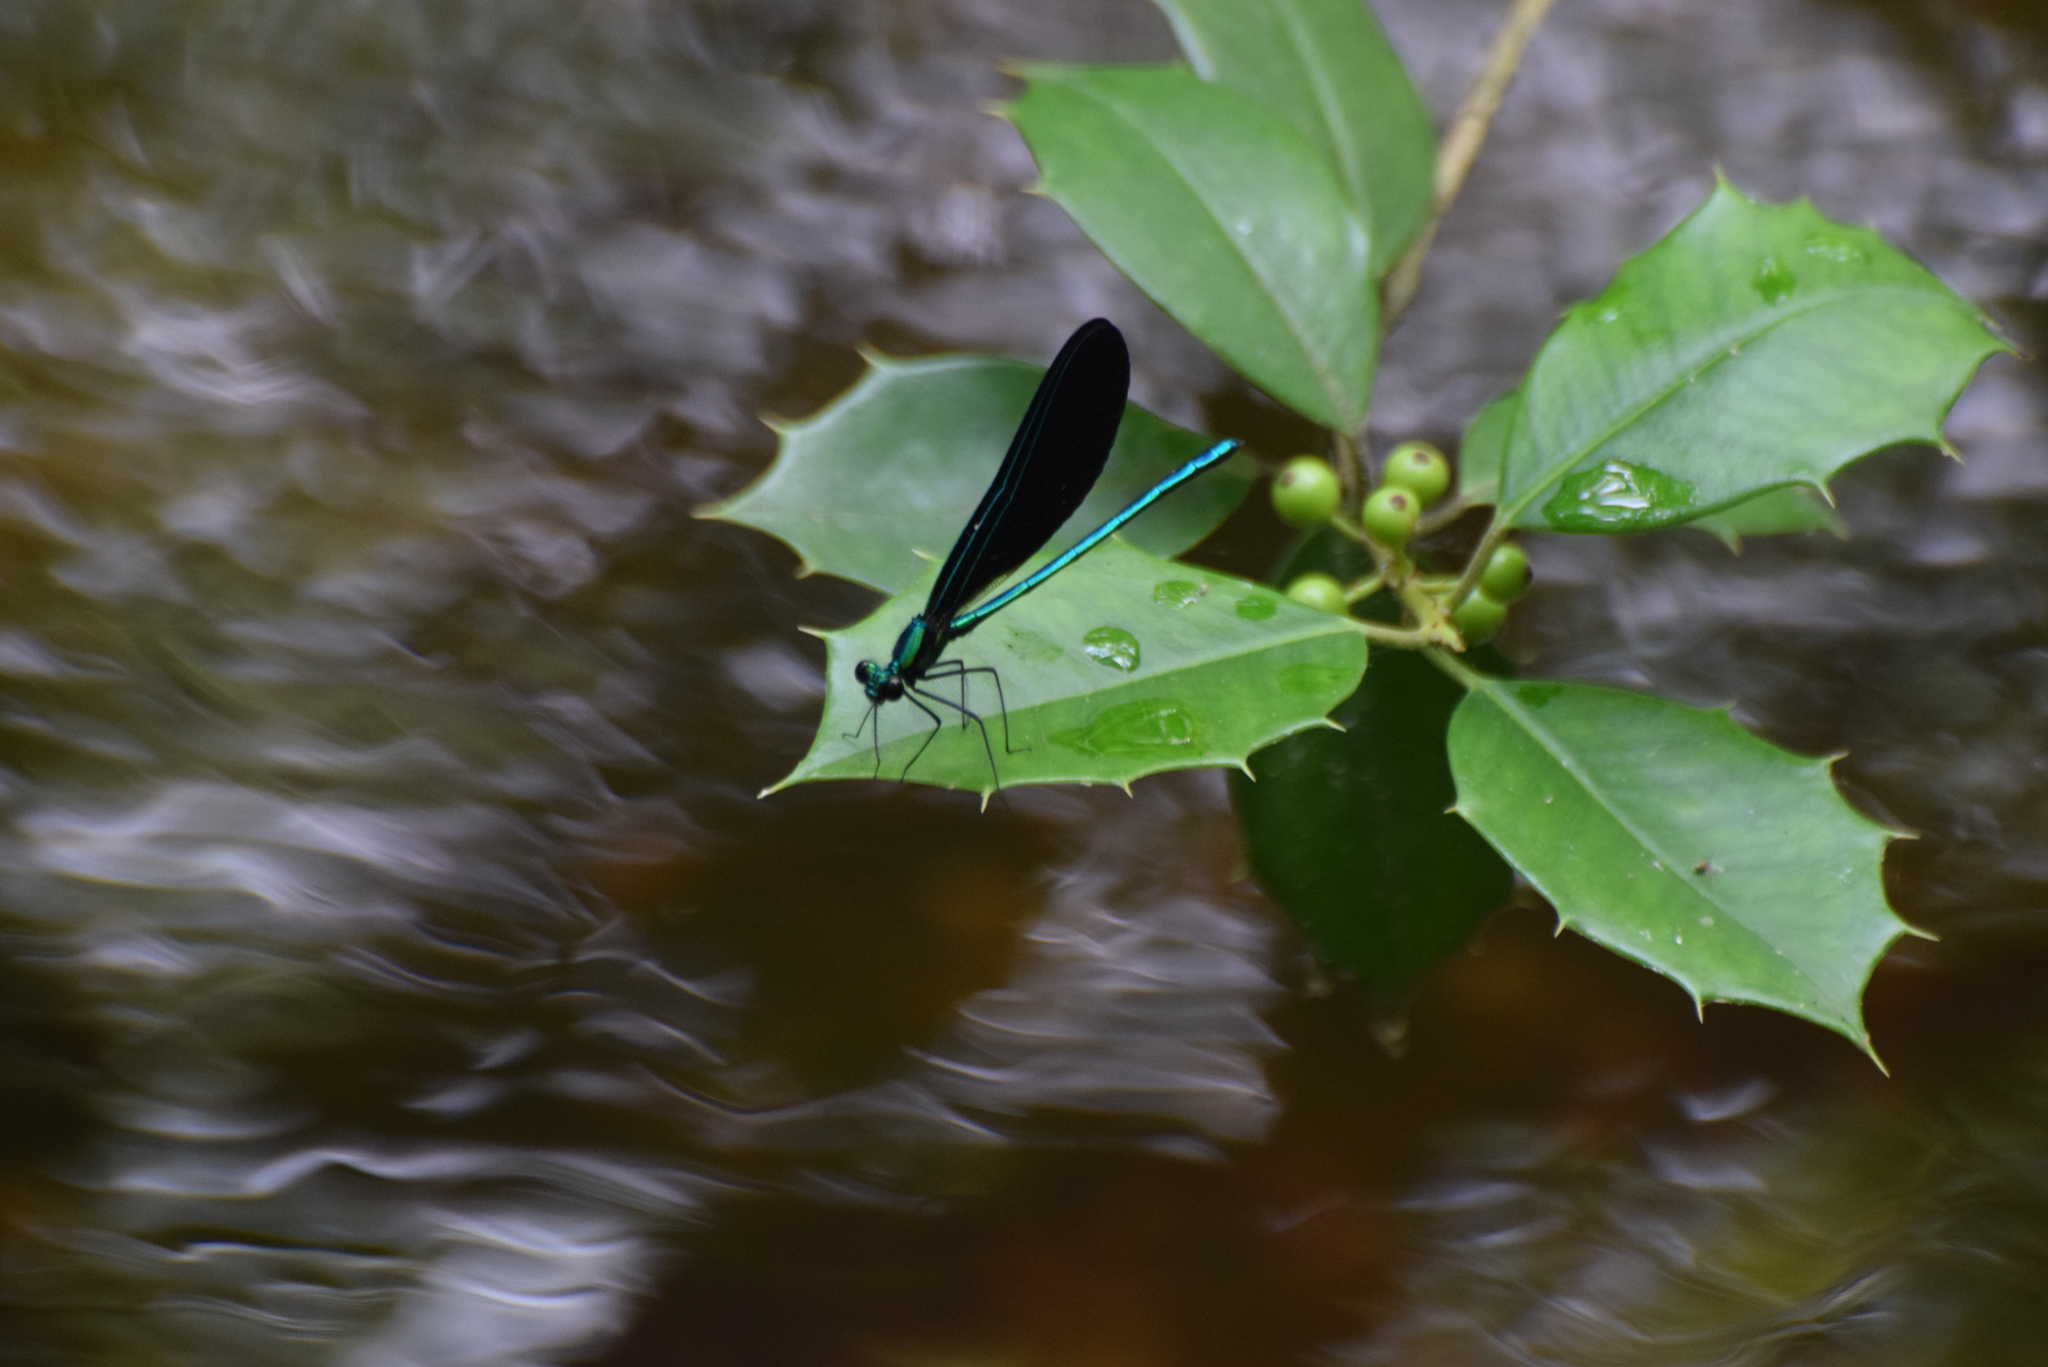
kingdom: Animalia
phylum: Arthropoda
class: Insecta
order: Odonata
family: Calopterygidae
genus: Calopteryx
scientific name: Calopteryx maculata
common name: Ebony jewelwing
